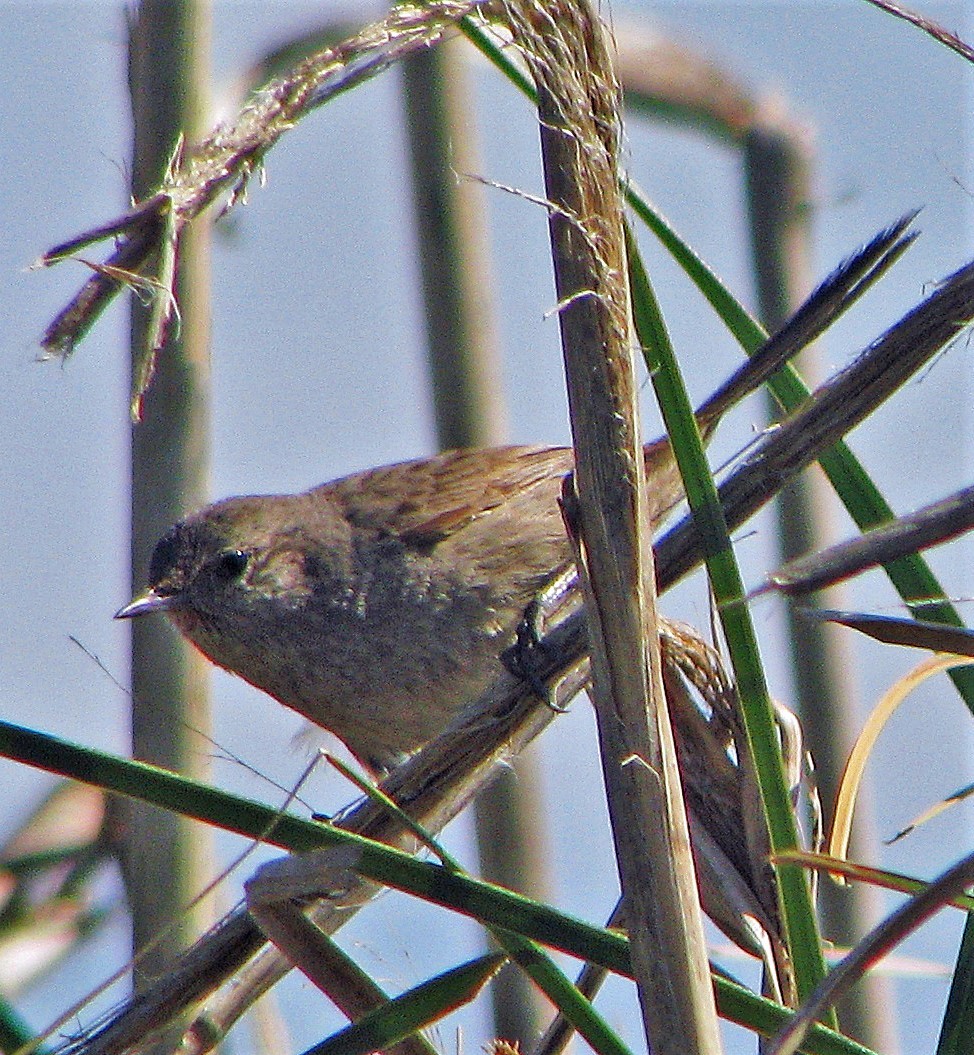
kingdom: Animalia
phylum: Chordata
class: Aves
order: Passeriformes
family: Furnariidae
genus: Asthenes
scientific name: Asthenes baeri
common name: Short-billed canastero
